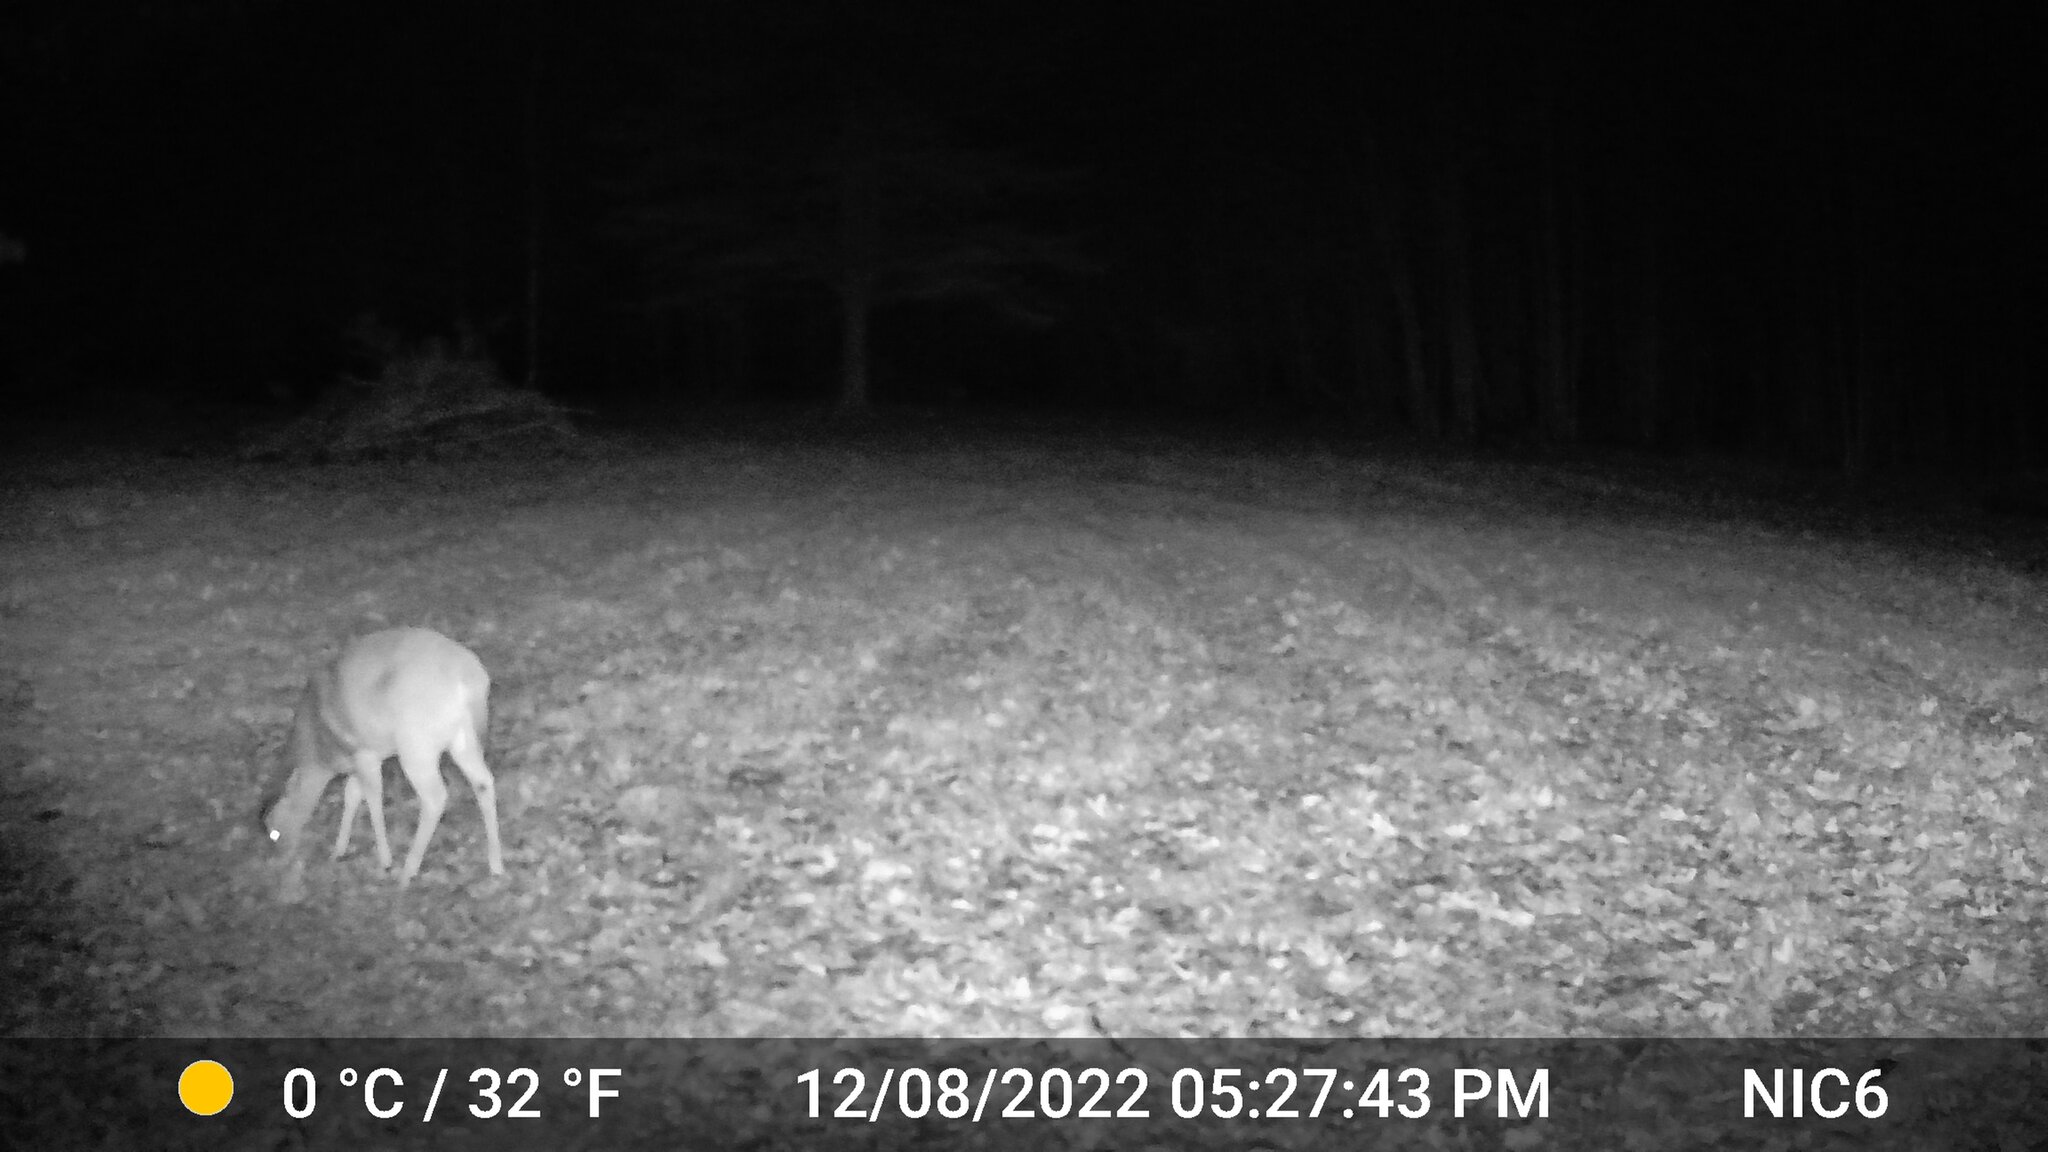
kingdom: Animalia
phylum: Chordata
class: Mammalia
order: Artiodactyla
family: Cervidae
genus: Odocoileus
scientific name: Odocoileus virginianus
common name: White-tailed deer
